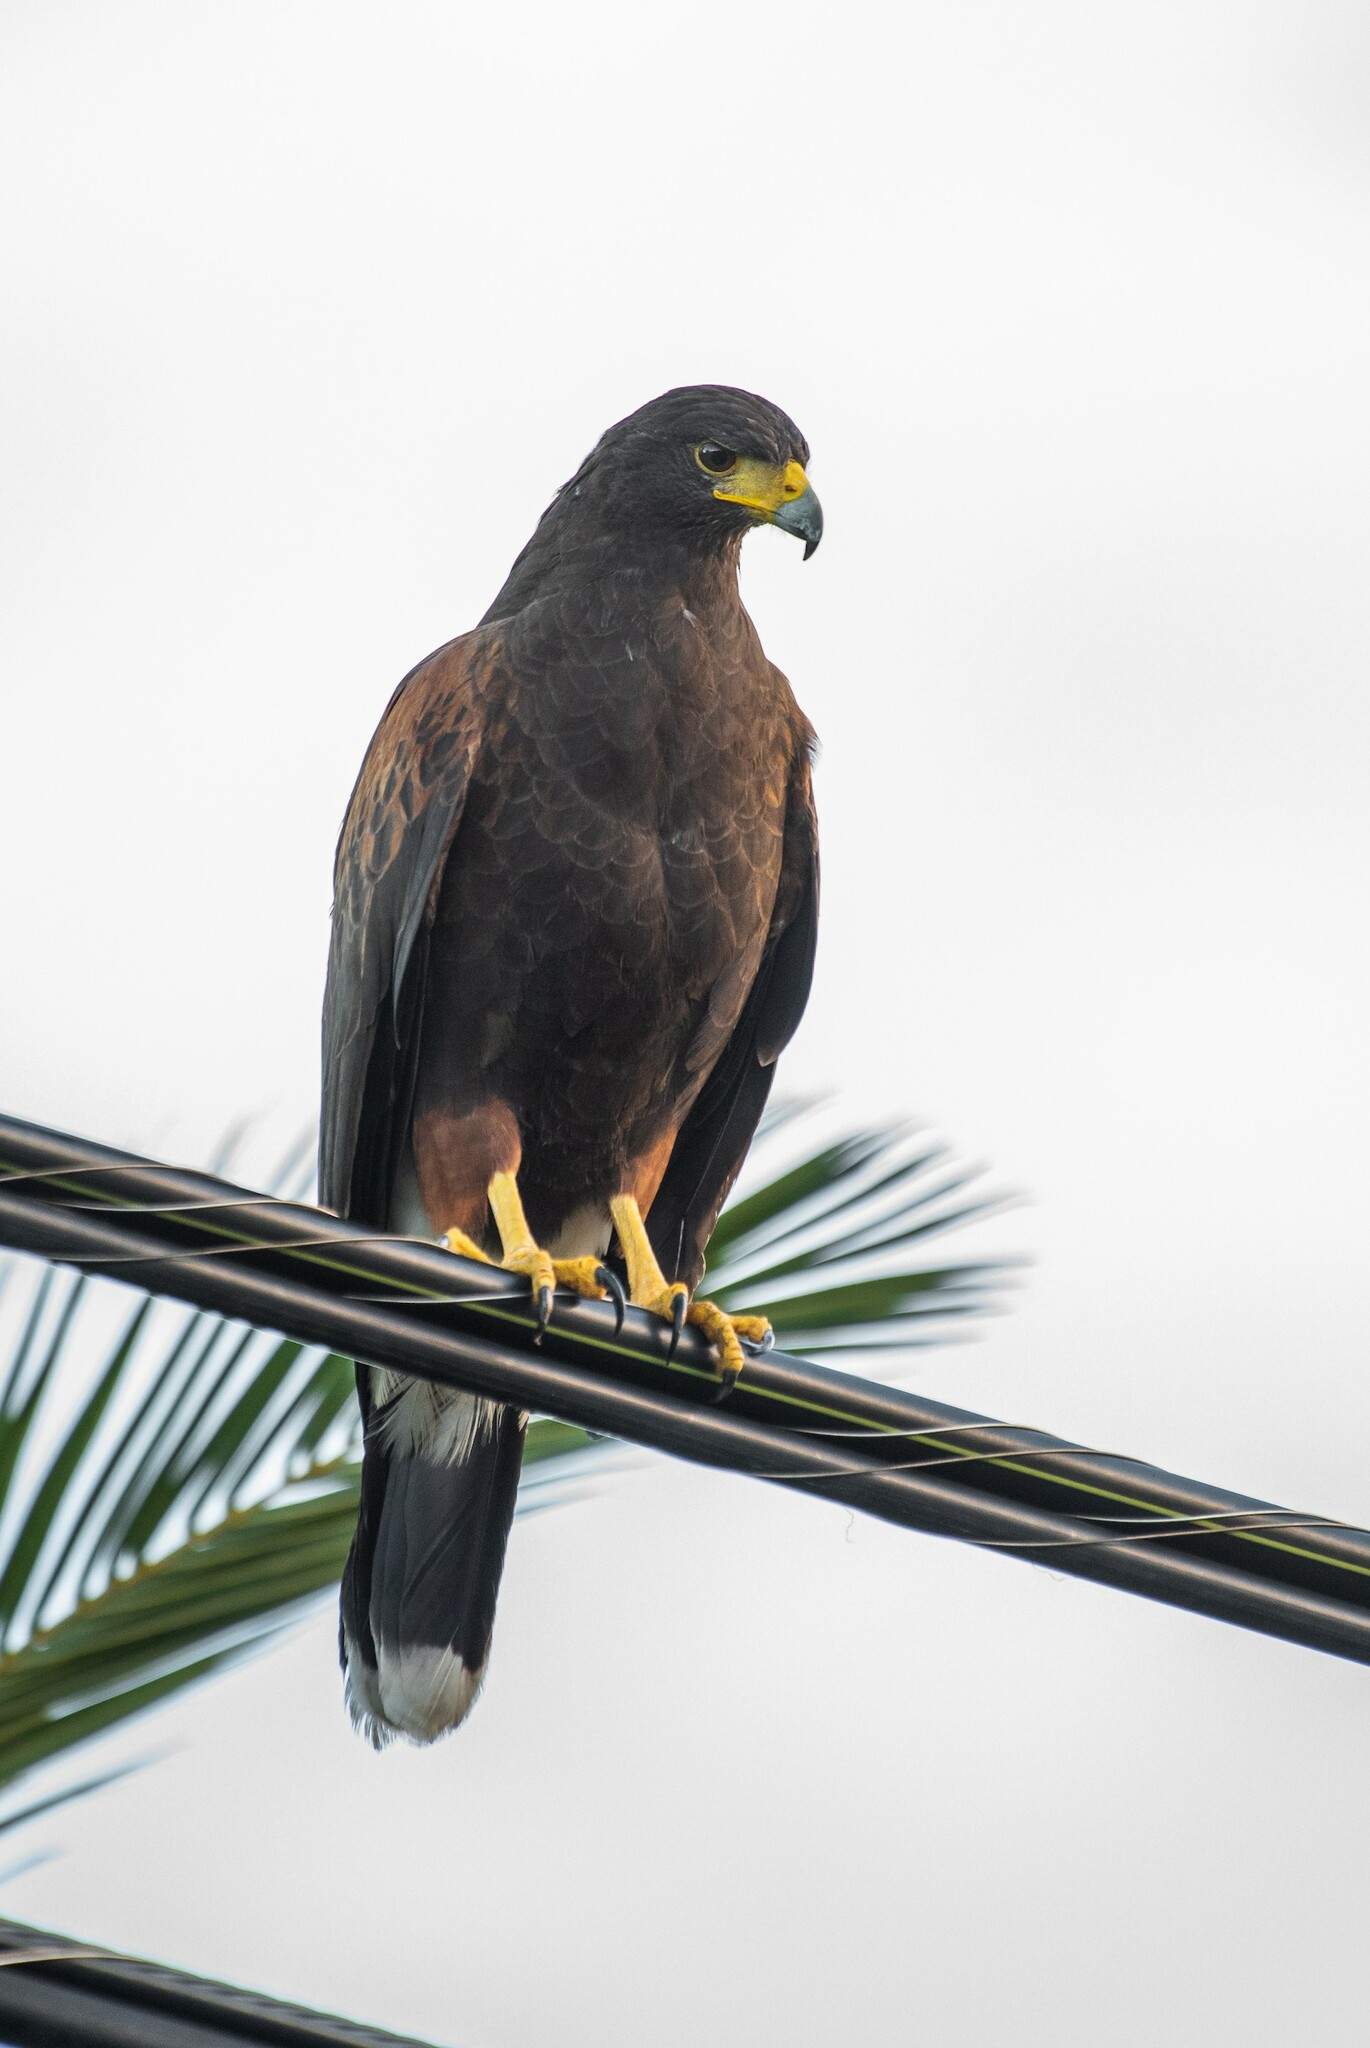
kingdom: Animalia
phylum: Chordata
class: Aves
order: Accipitriformes
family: Accipitridae
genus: Parabuteo
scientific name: Parabuteo unicinctus
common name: Harris's hawk
